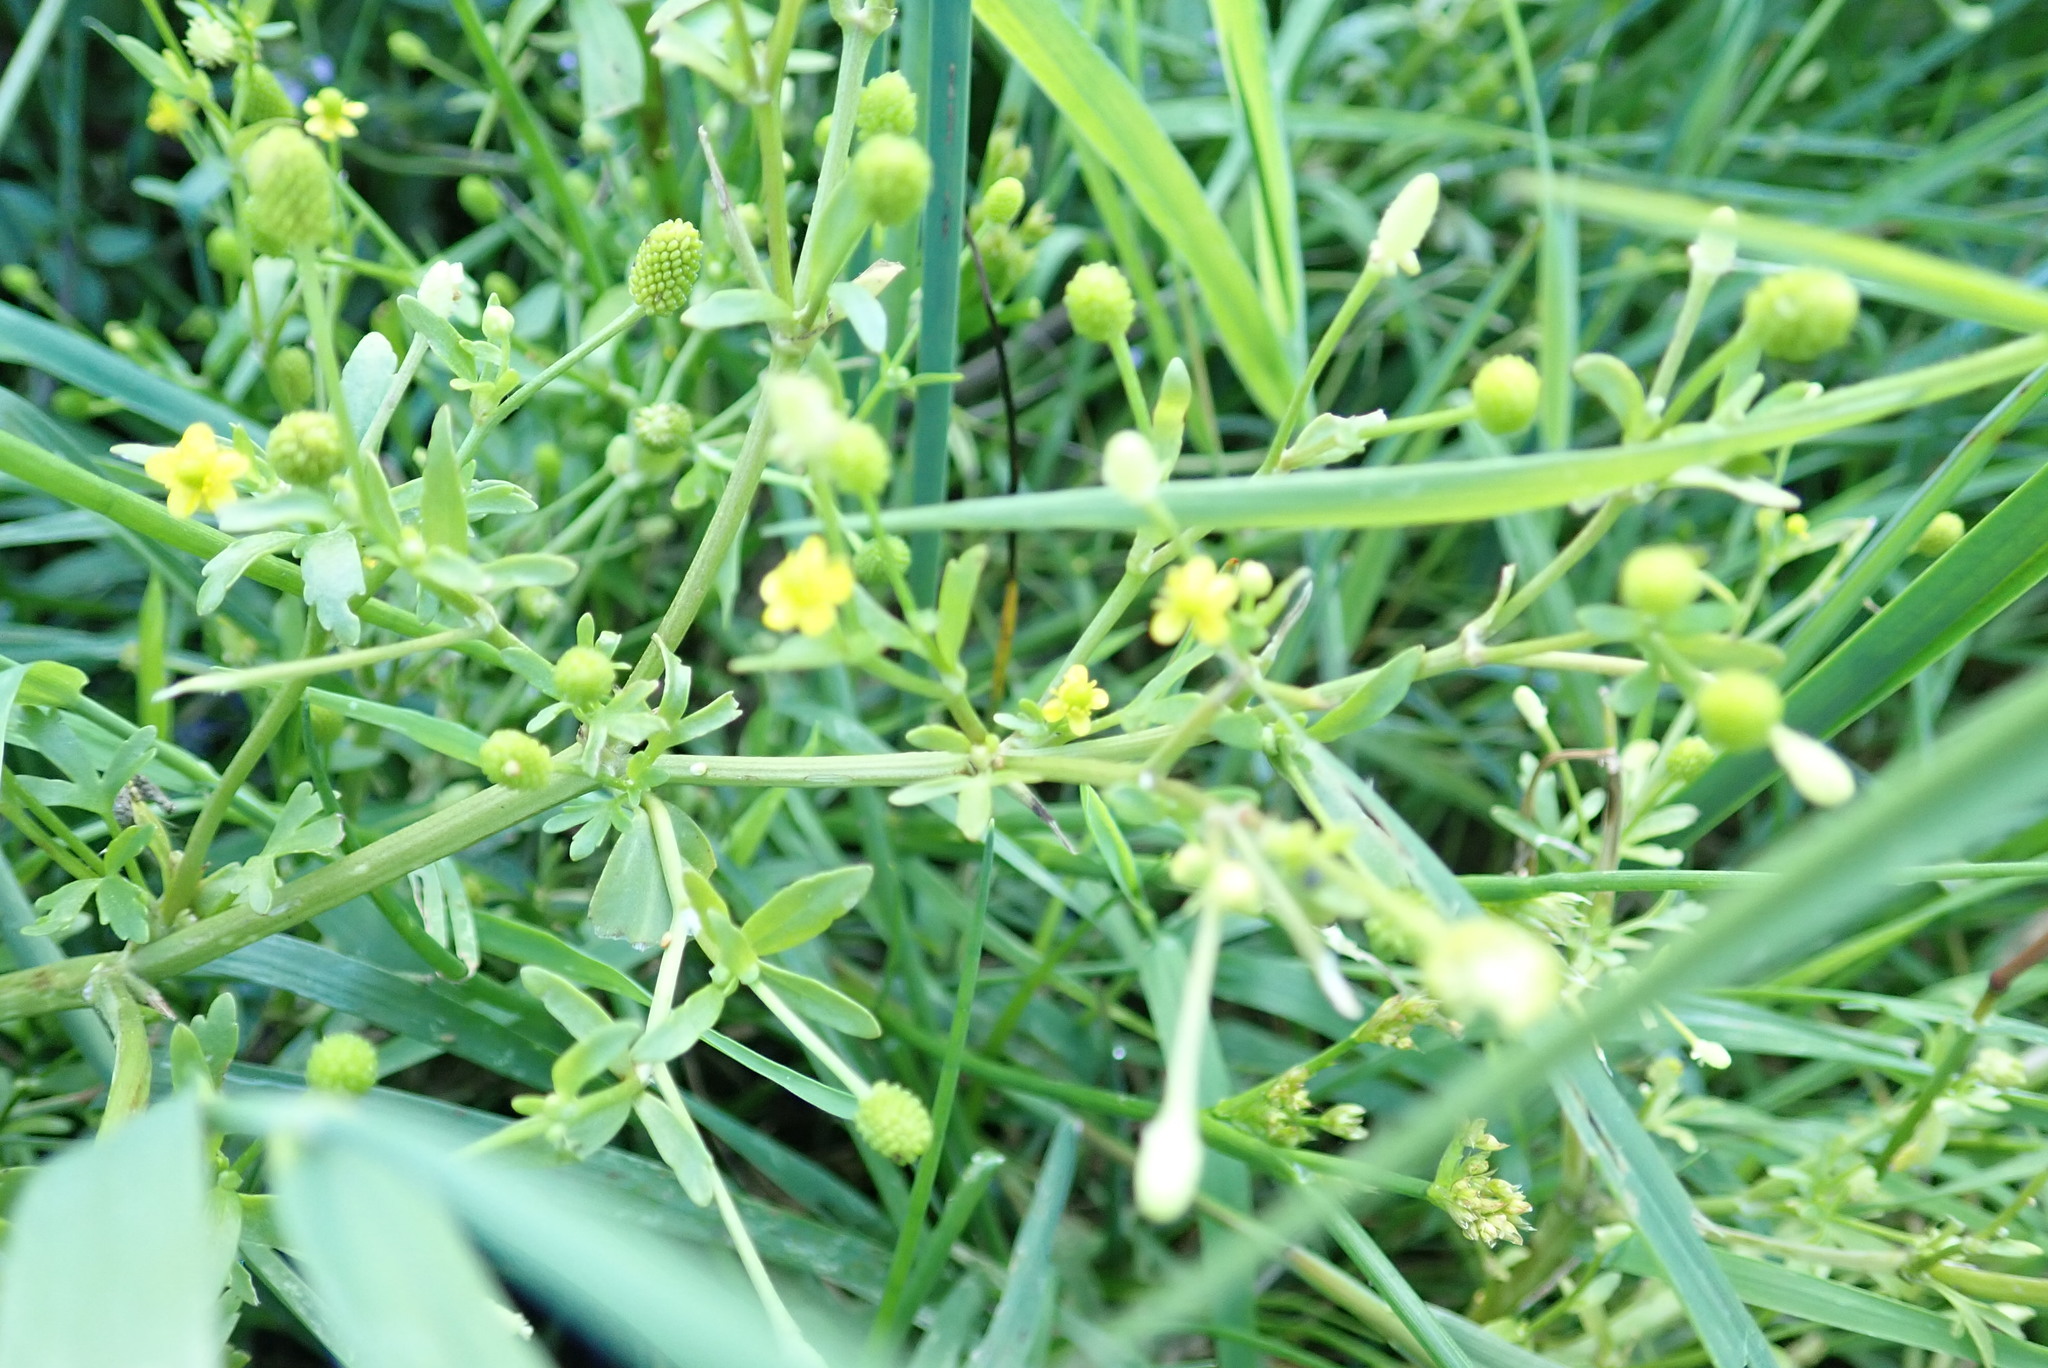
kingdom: Plantae
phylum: Tracheophyta
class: Magnoliopsida
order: Ranunculales
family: Ranunculaceae
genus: Ranunculus
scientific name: Ranunculus sceleratus
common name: Celery-leaved buttercup
